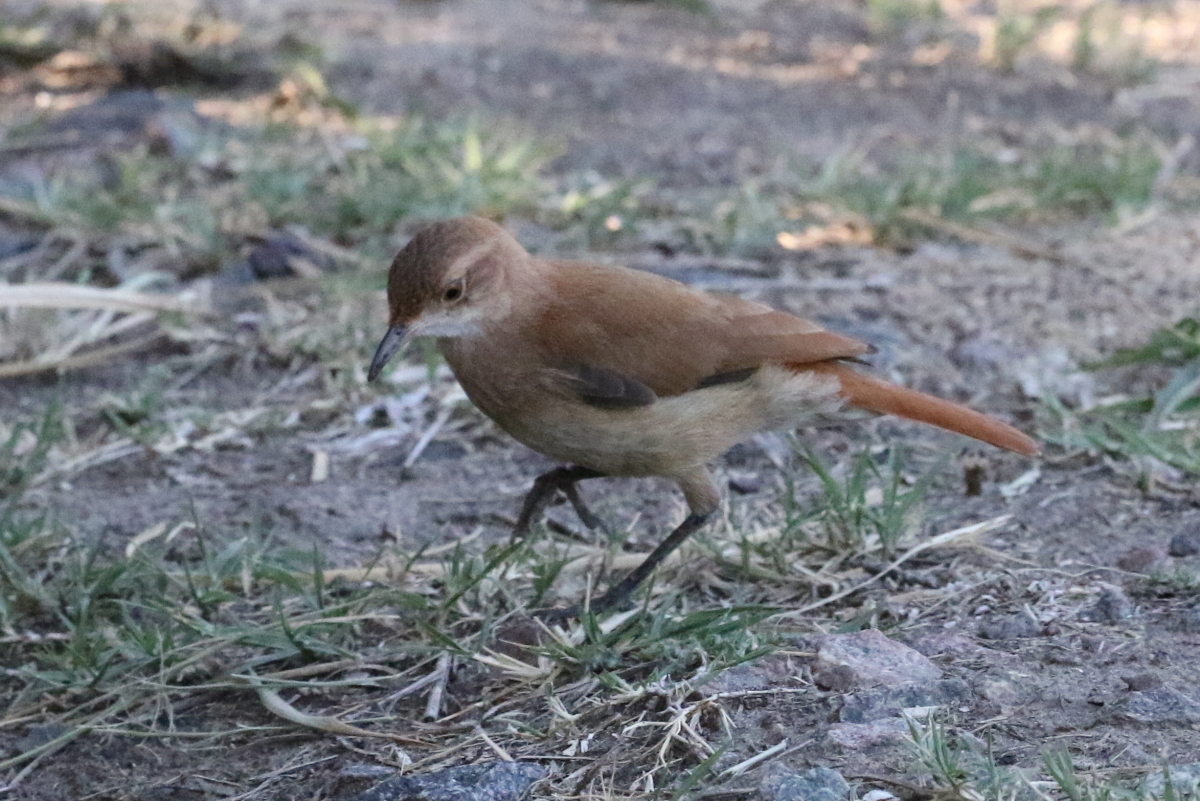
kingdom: Animalia
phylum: Chordata
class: Aves
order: Passeriformes
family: Furnariidae
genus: Furnarius
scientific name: Furnarius rufus
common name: Rufous hornero
